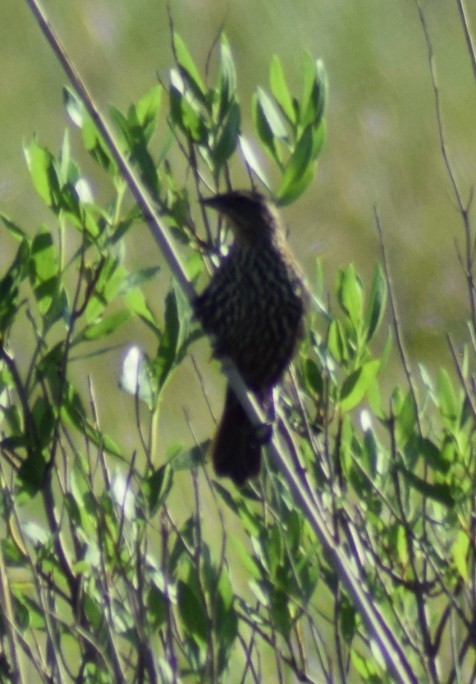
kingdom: Animalia
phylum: Chordata
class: Aves
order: Passeriformes
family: Icteridae
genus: Agelaius
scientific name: Agelaius phoeniceus
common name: Red-winged blackbird
